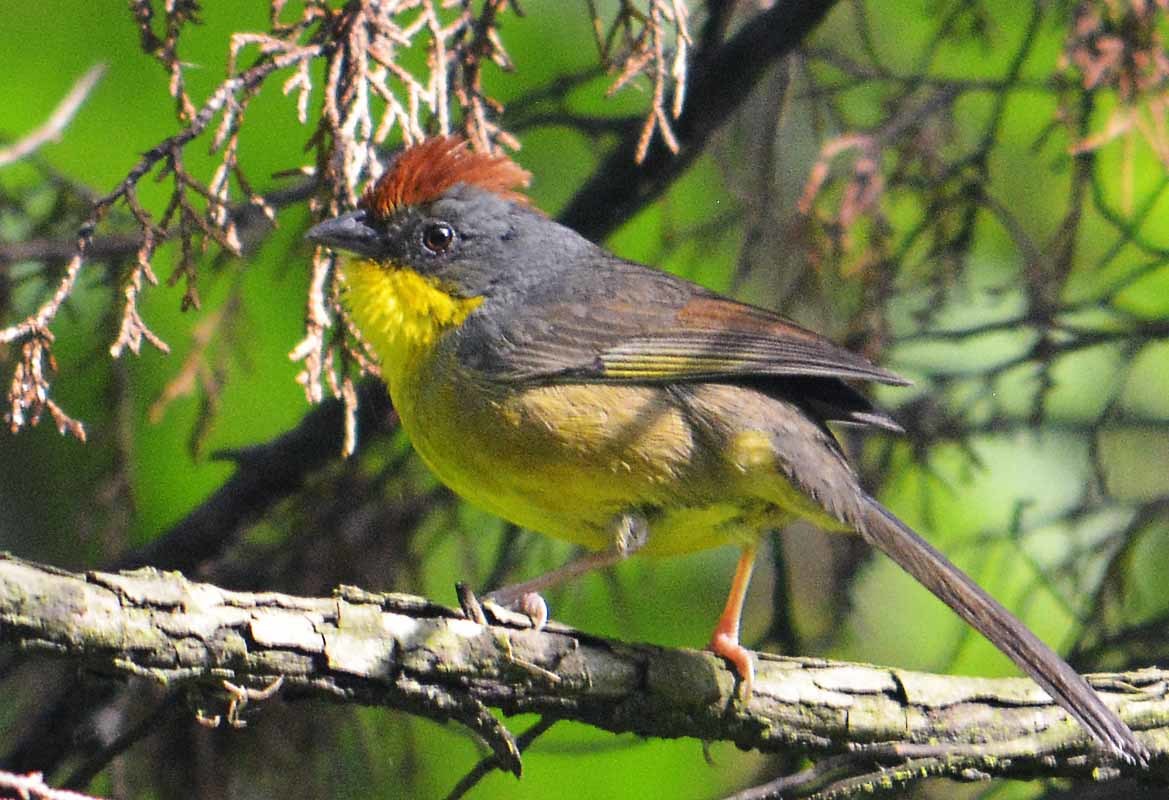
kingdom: Animalia
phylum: Chordata
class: Aves
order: Passeriformes
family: Passerellidae
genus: Atlapetes
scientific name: Atlapetes pileatus
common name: Rufous-capped brush-finch
